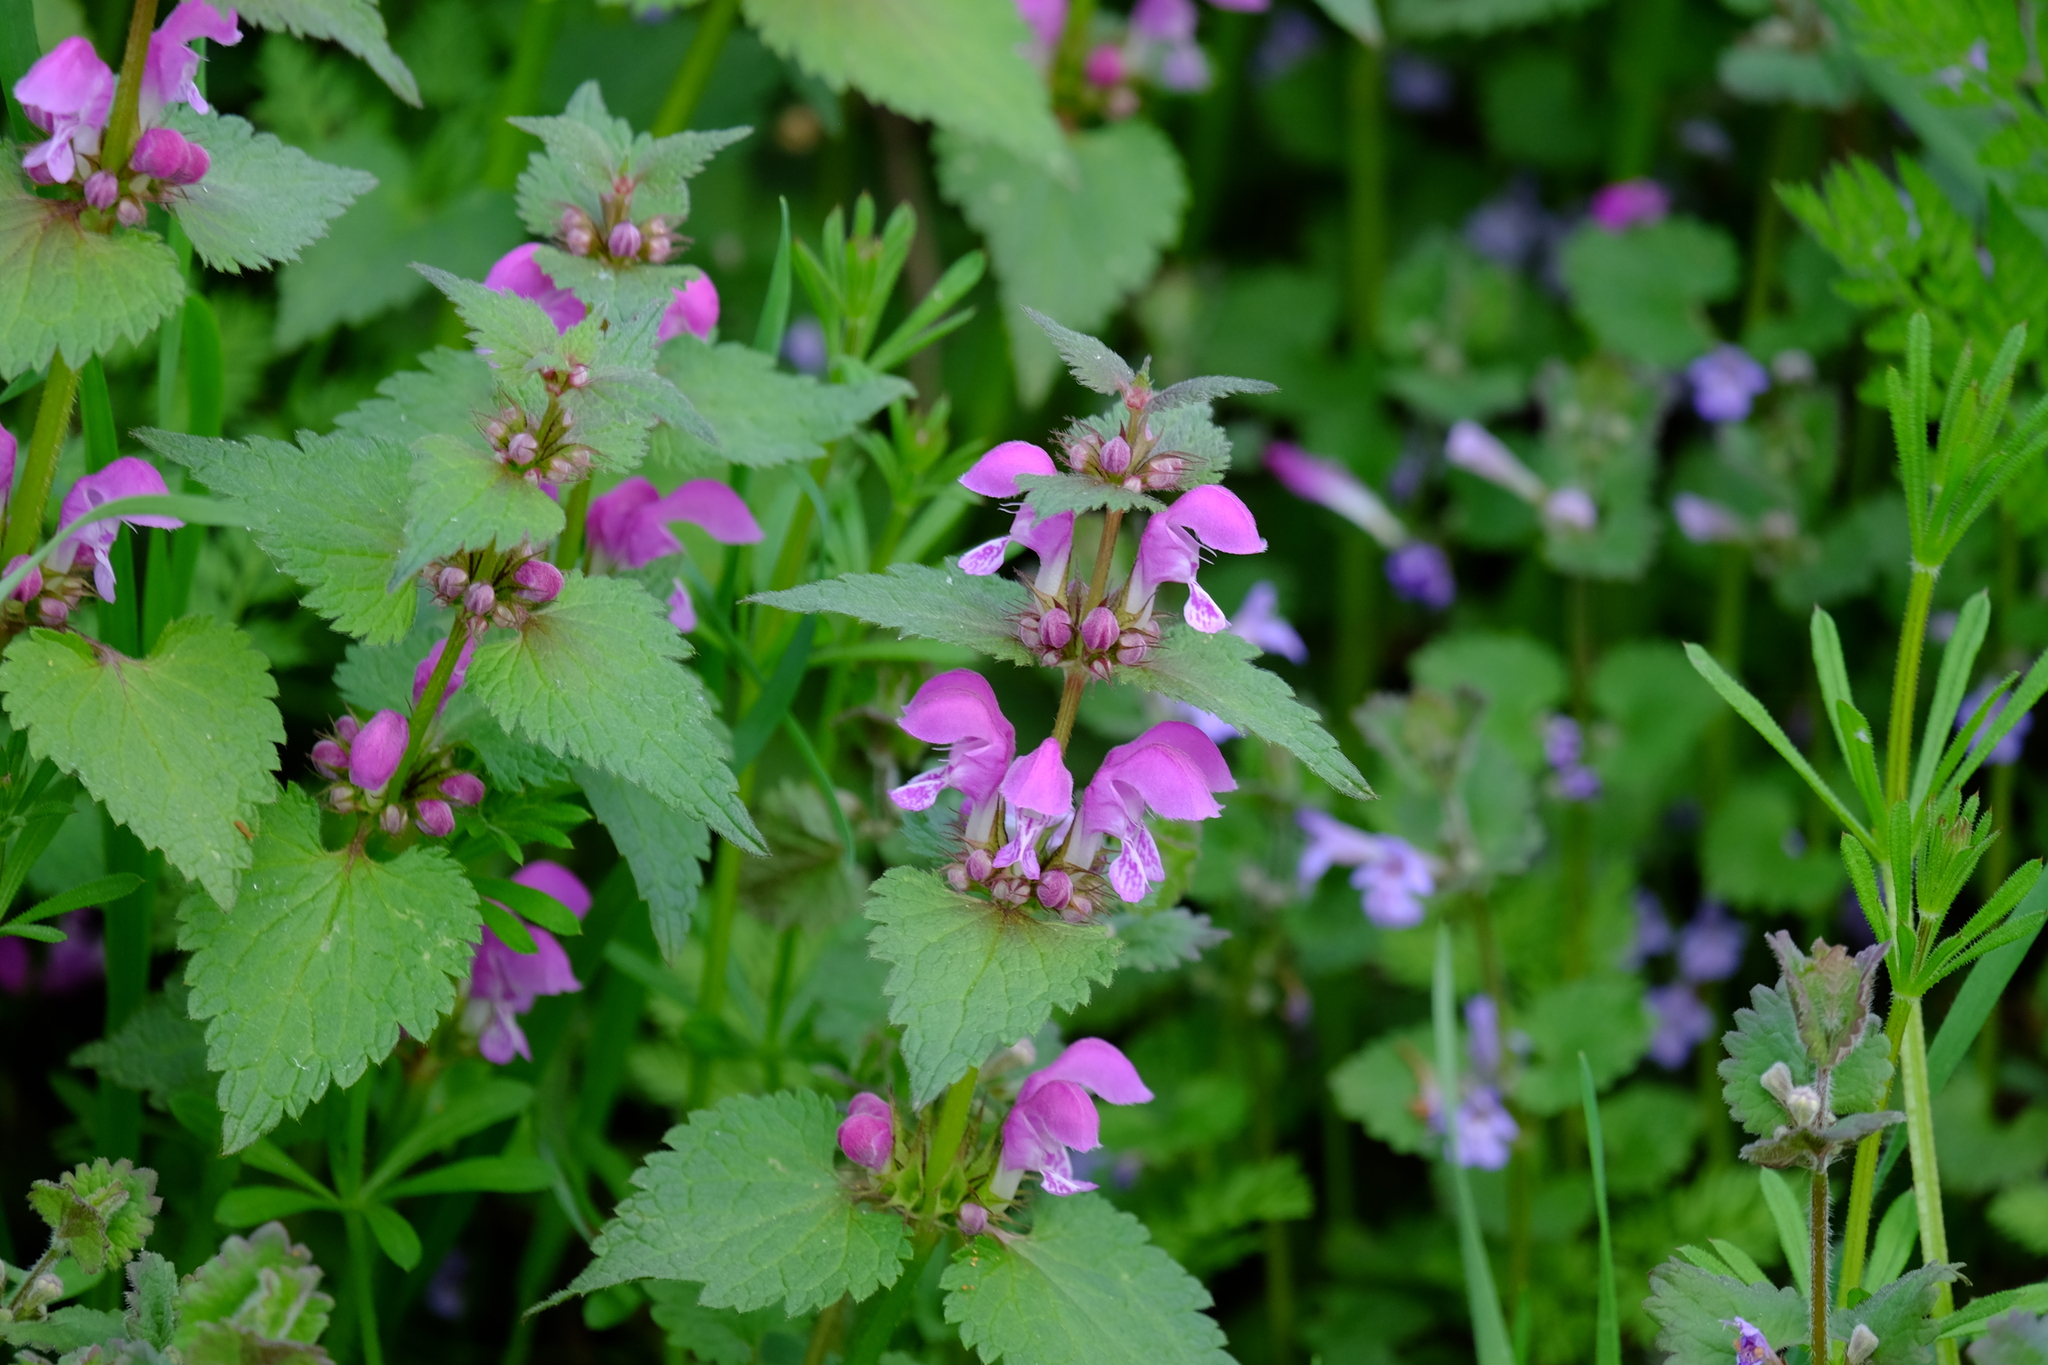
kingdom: Plantae
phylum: Tracheophyta
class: Magnoliopsida
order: Lamiales
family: Lamiaceae
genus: Lamium
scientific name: Lamium maculatum
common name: Spotted dead-nettle
